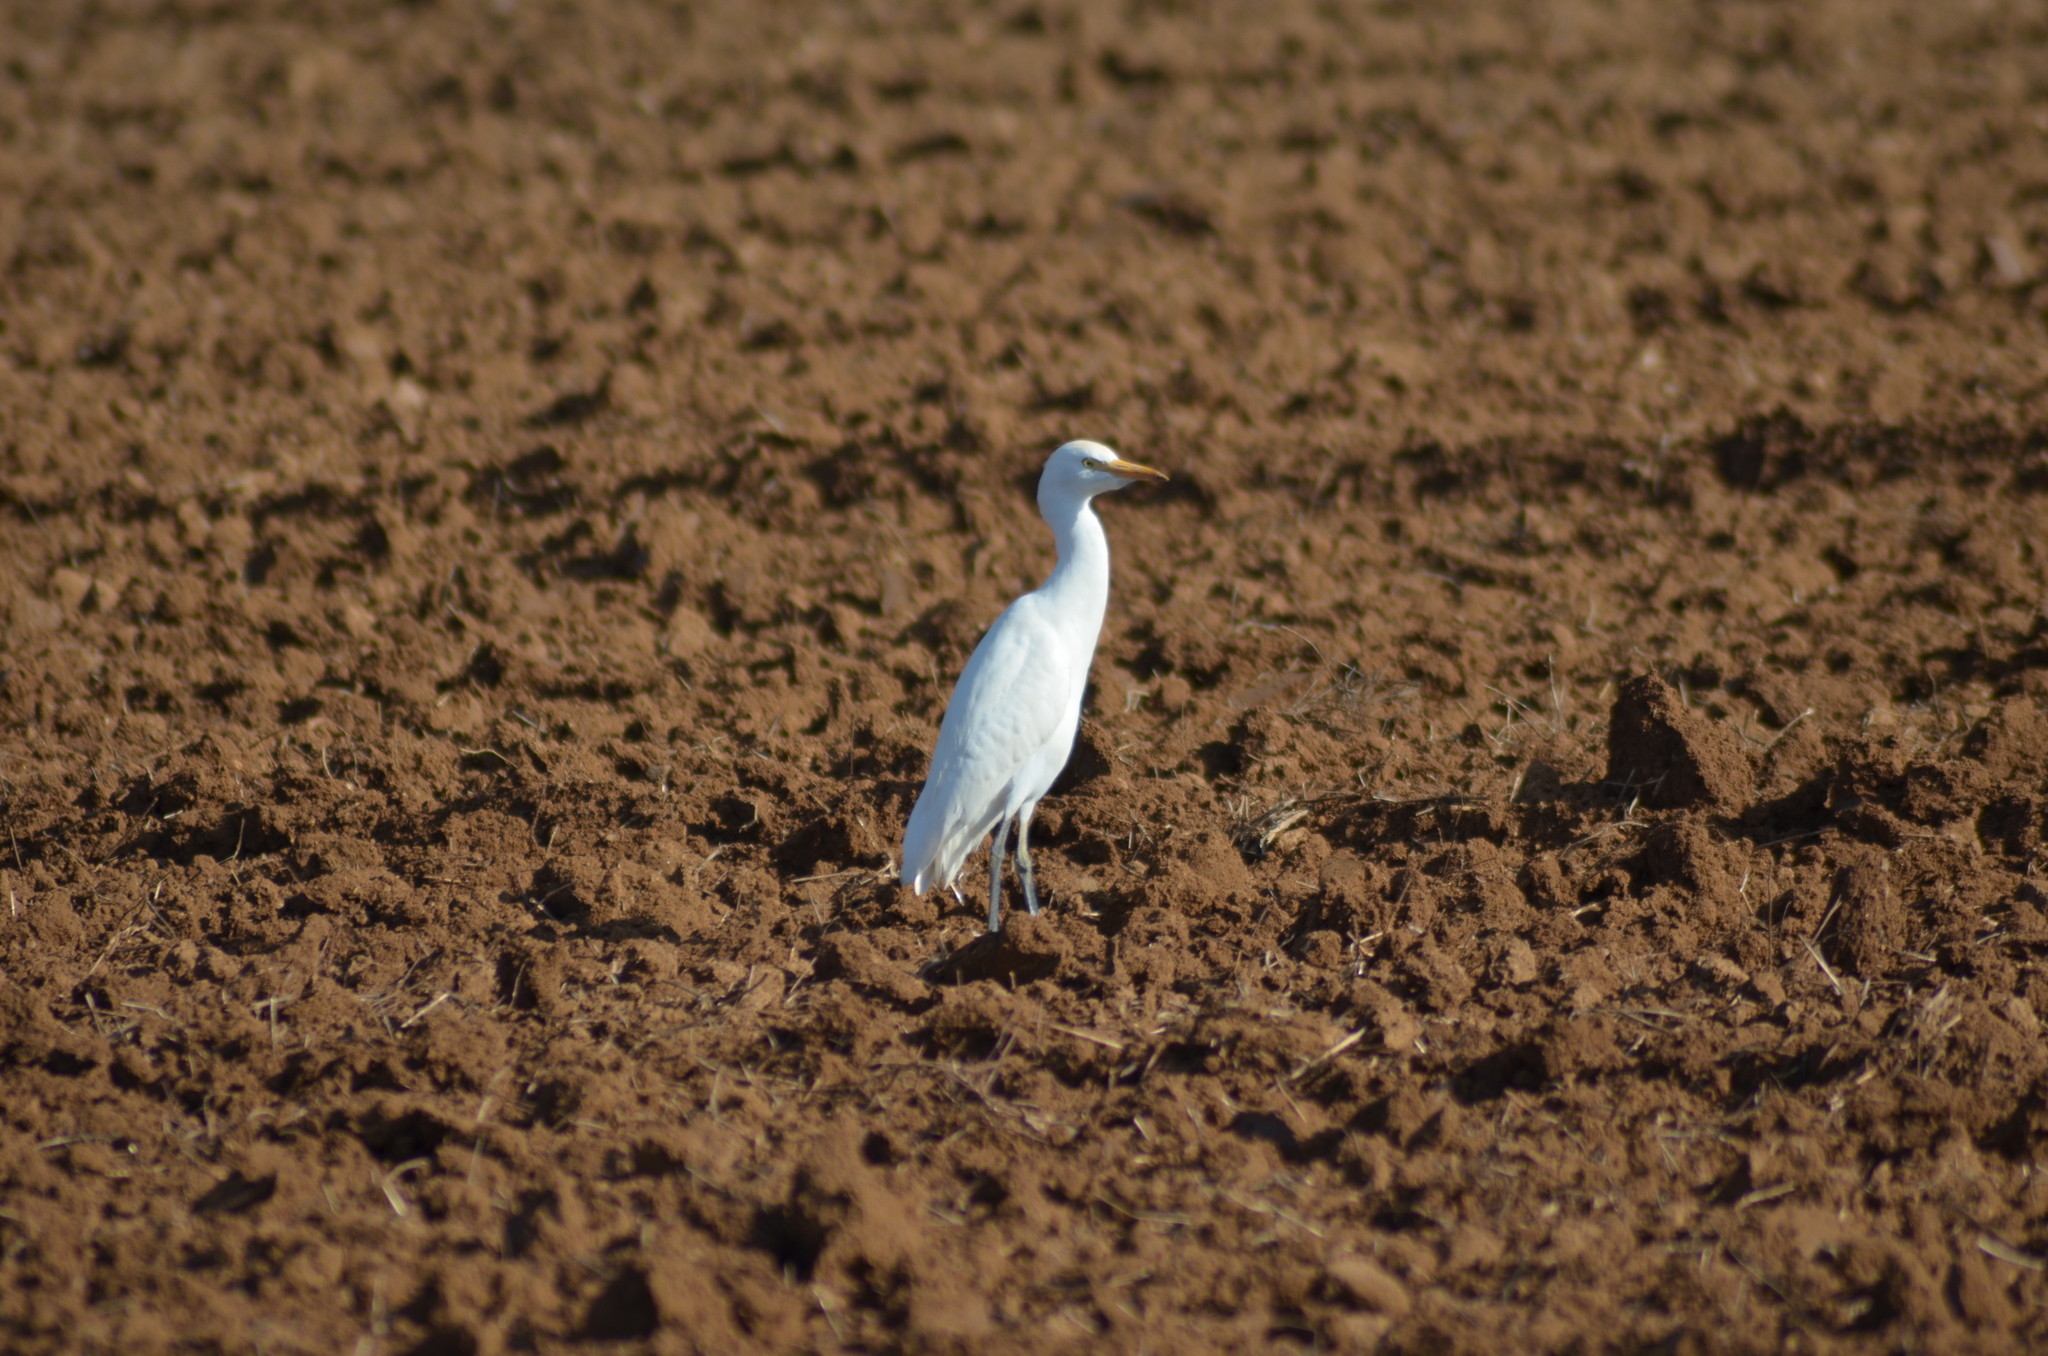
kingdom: Animalia
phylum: Chordata
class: Aves
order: Pelecaniformes
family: Ardeidae
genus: Bubulcus
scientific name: Bubulcus ibis
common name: Cattle egret
